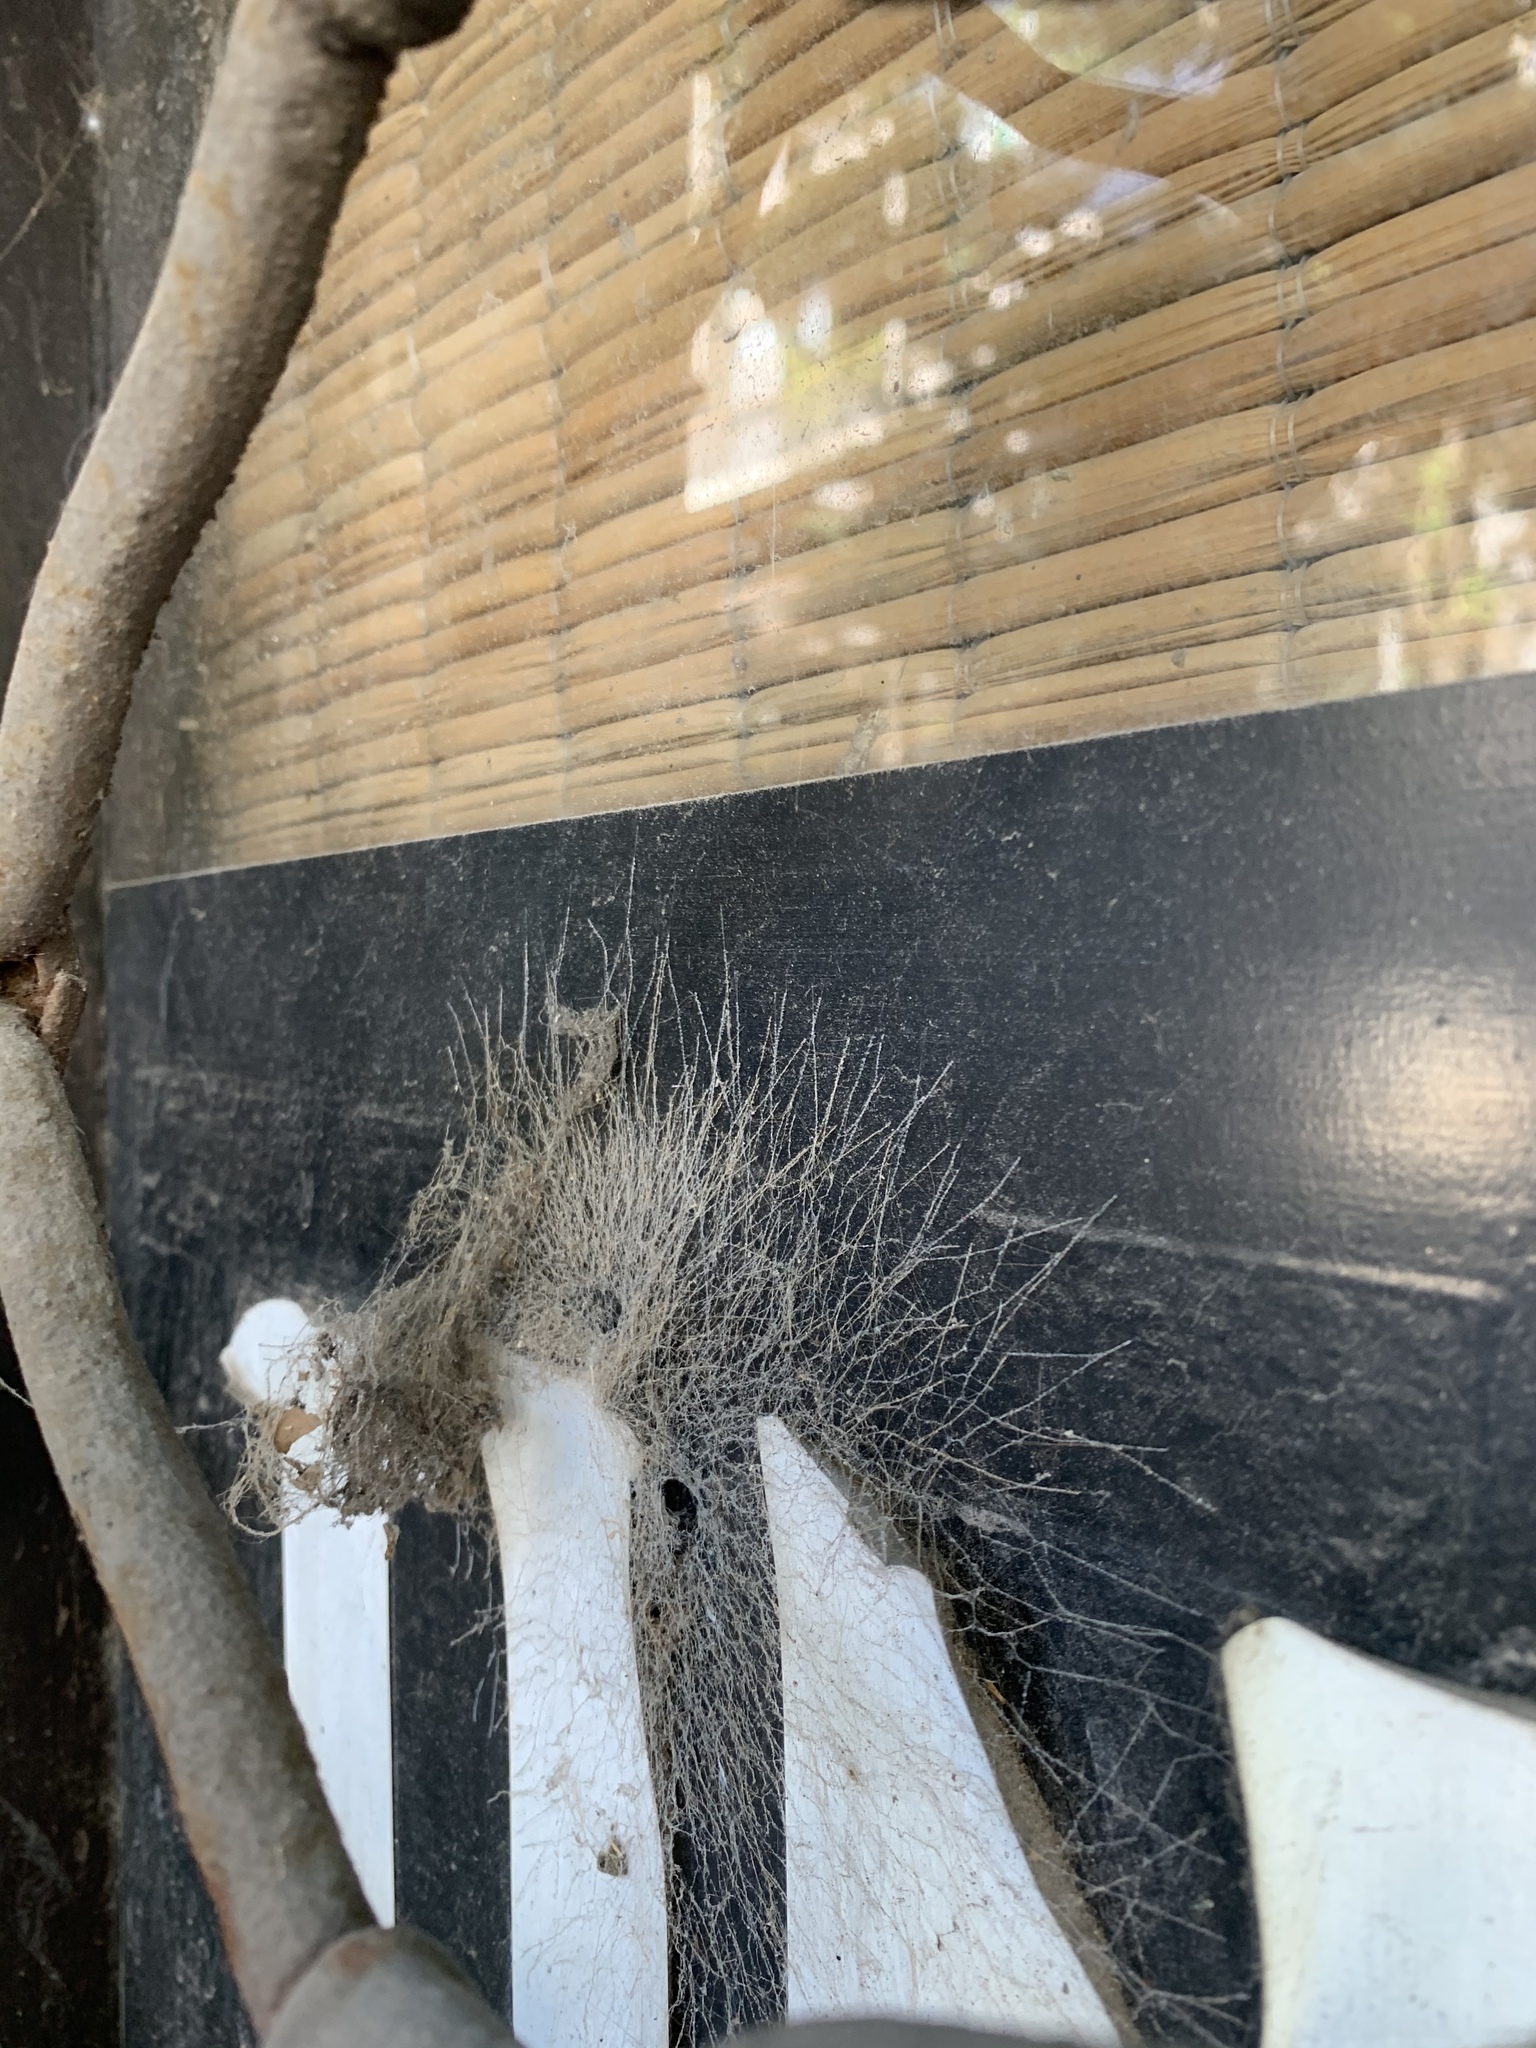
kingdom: Animalia
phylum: Arthropoda
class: Arachnida
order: Araneae
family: Filistatidae
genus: Kukulcania
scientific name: Kukulcania hibernalis
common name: Crevice weaver
